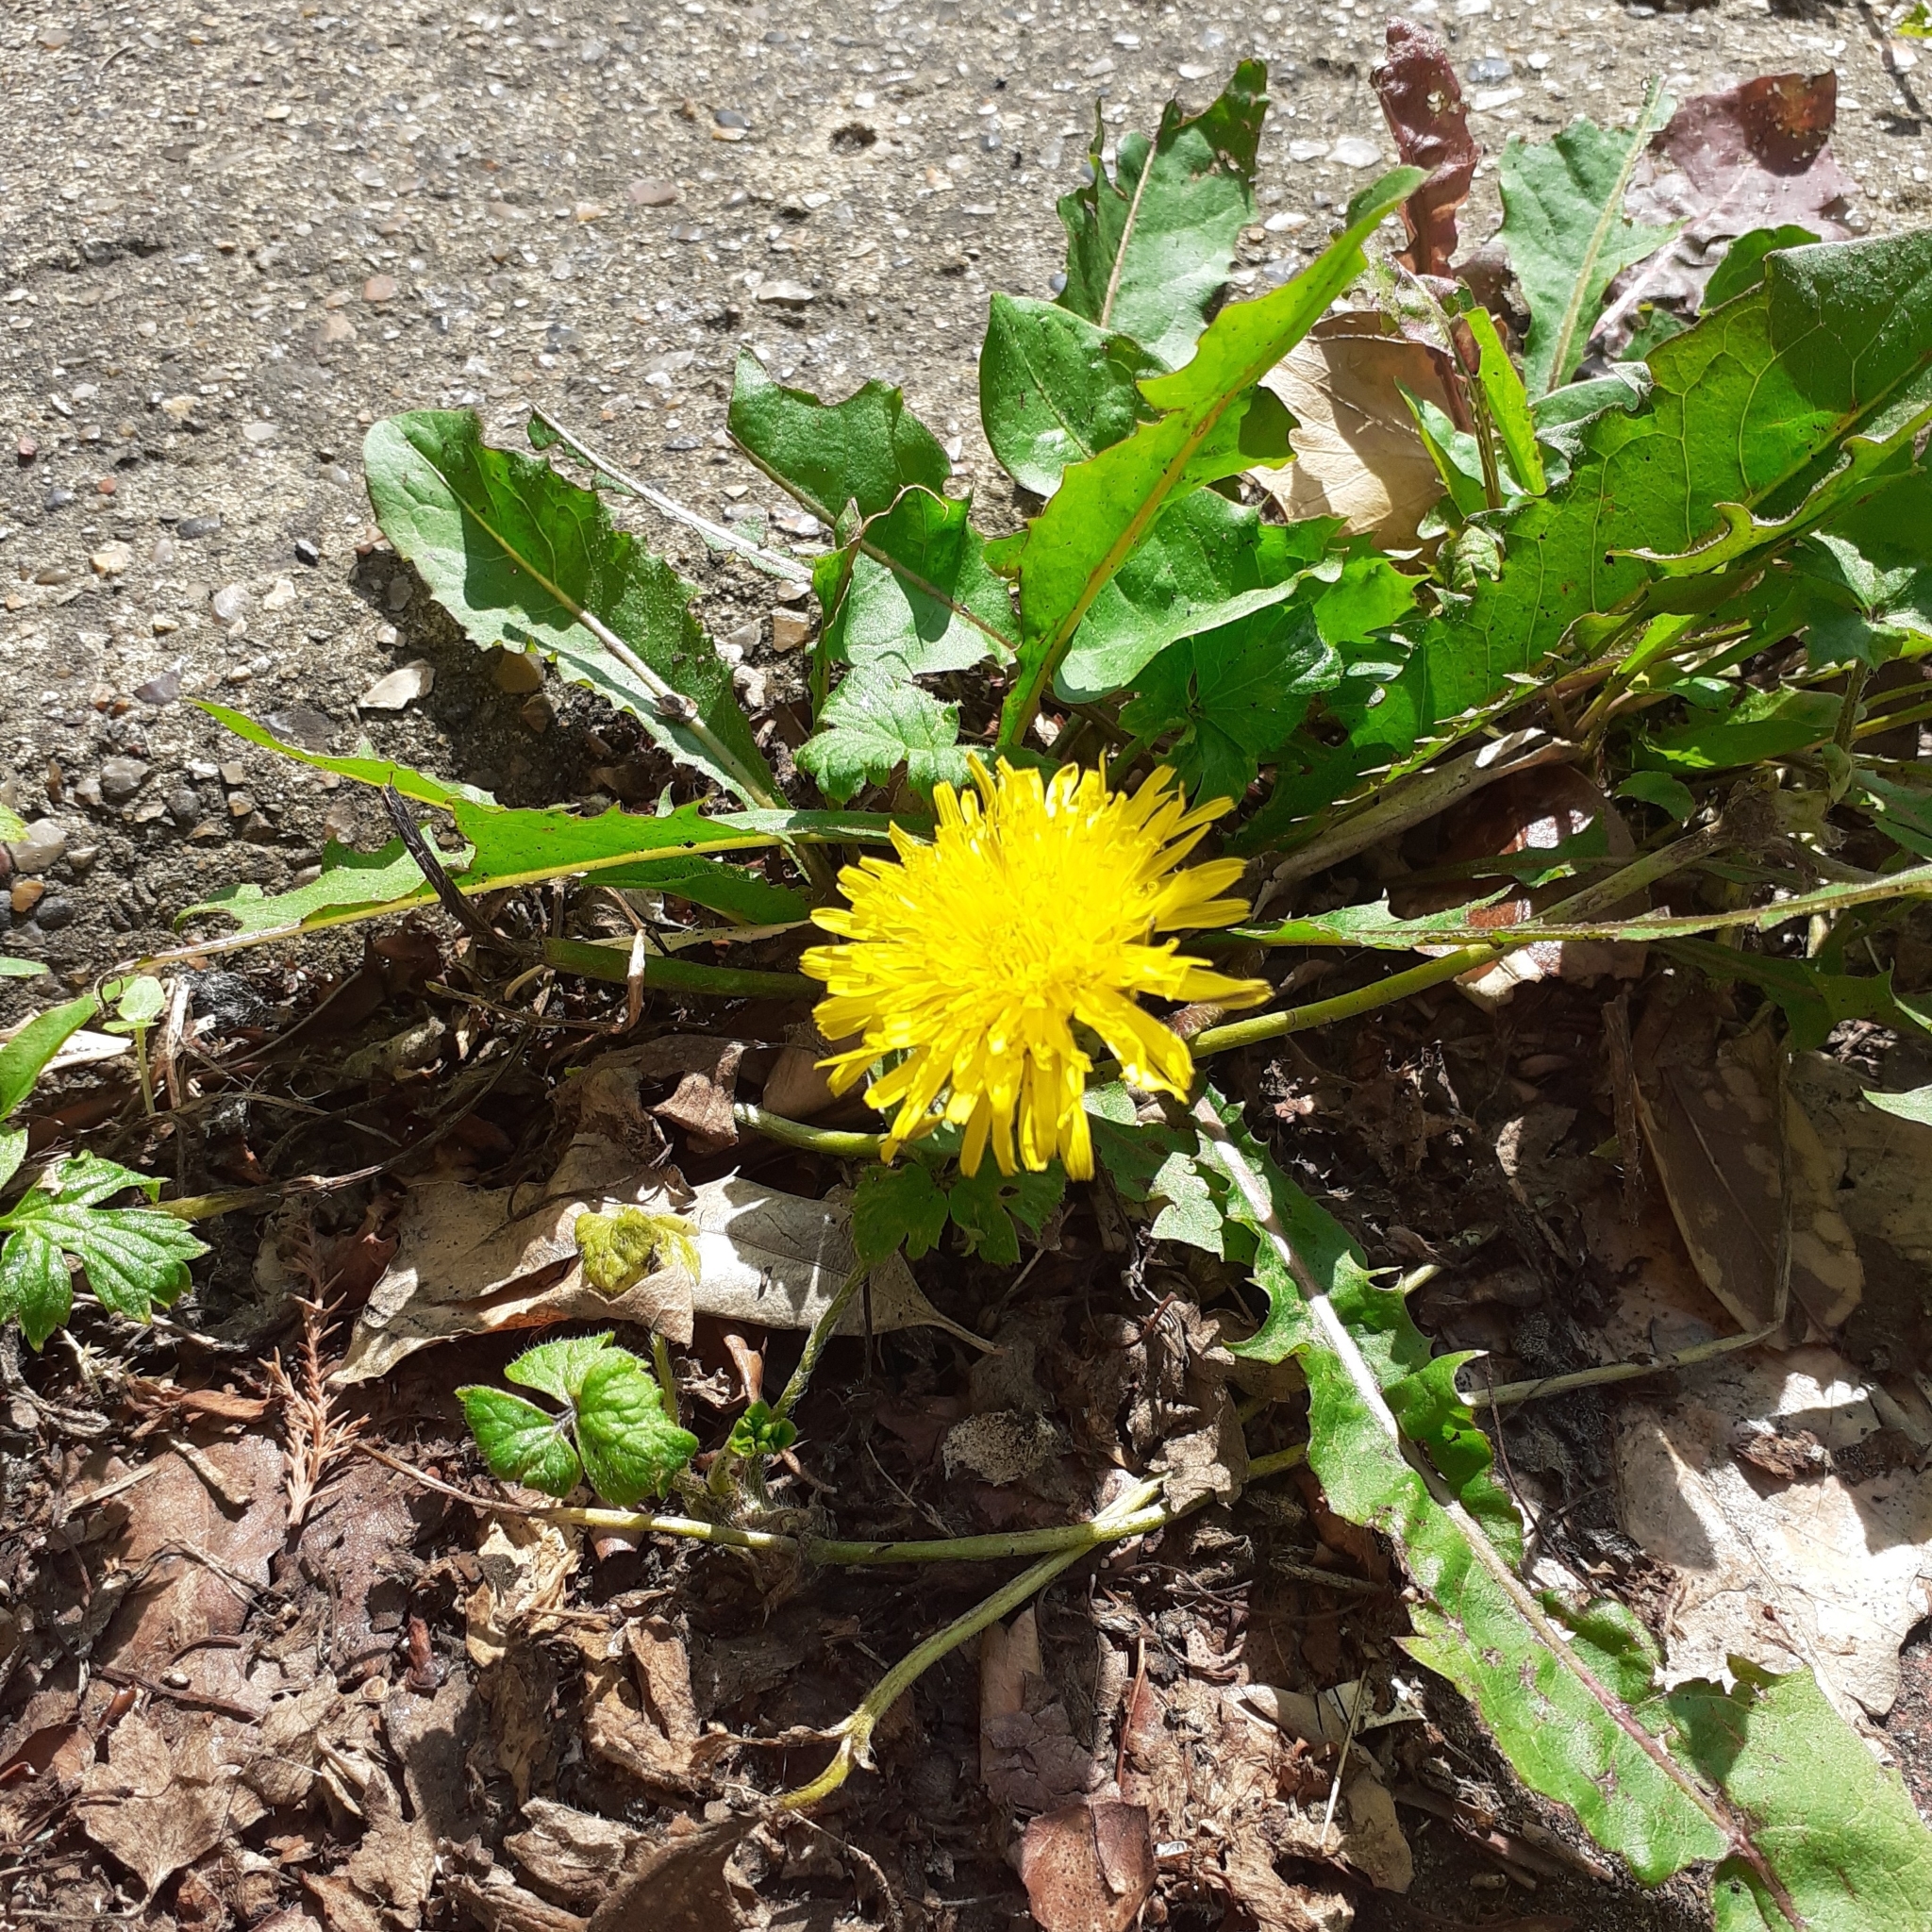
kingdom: Plantae
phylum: Tracheophyta
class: Magnoliopsida
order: Asterales
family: Asteraceae
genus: Taraxacum
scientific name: Taraxacum officinale
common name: Common dandelion
